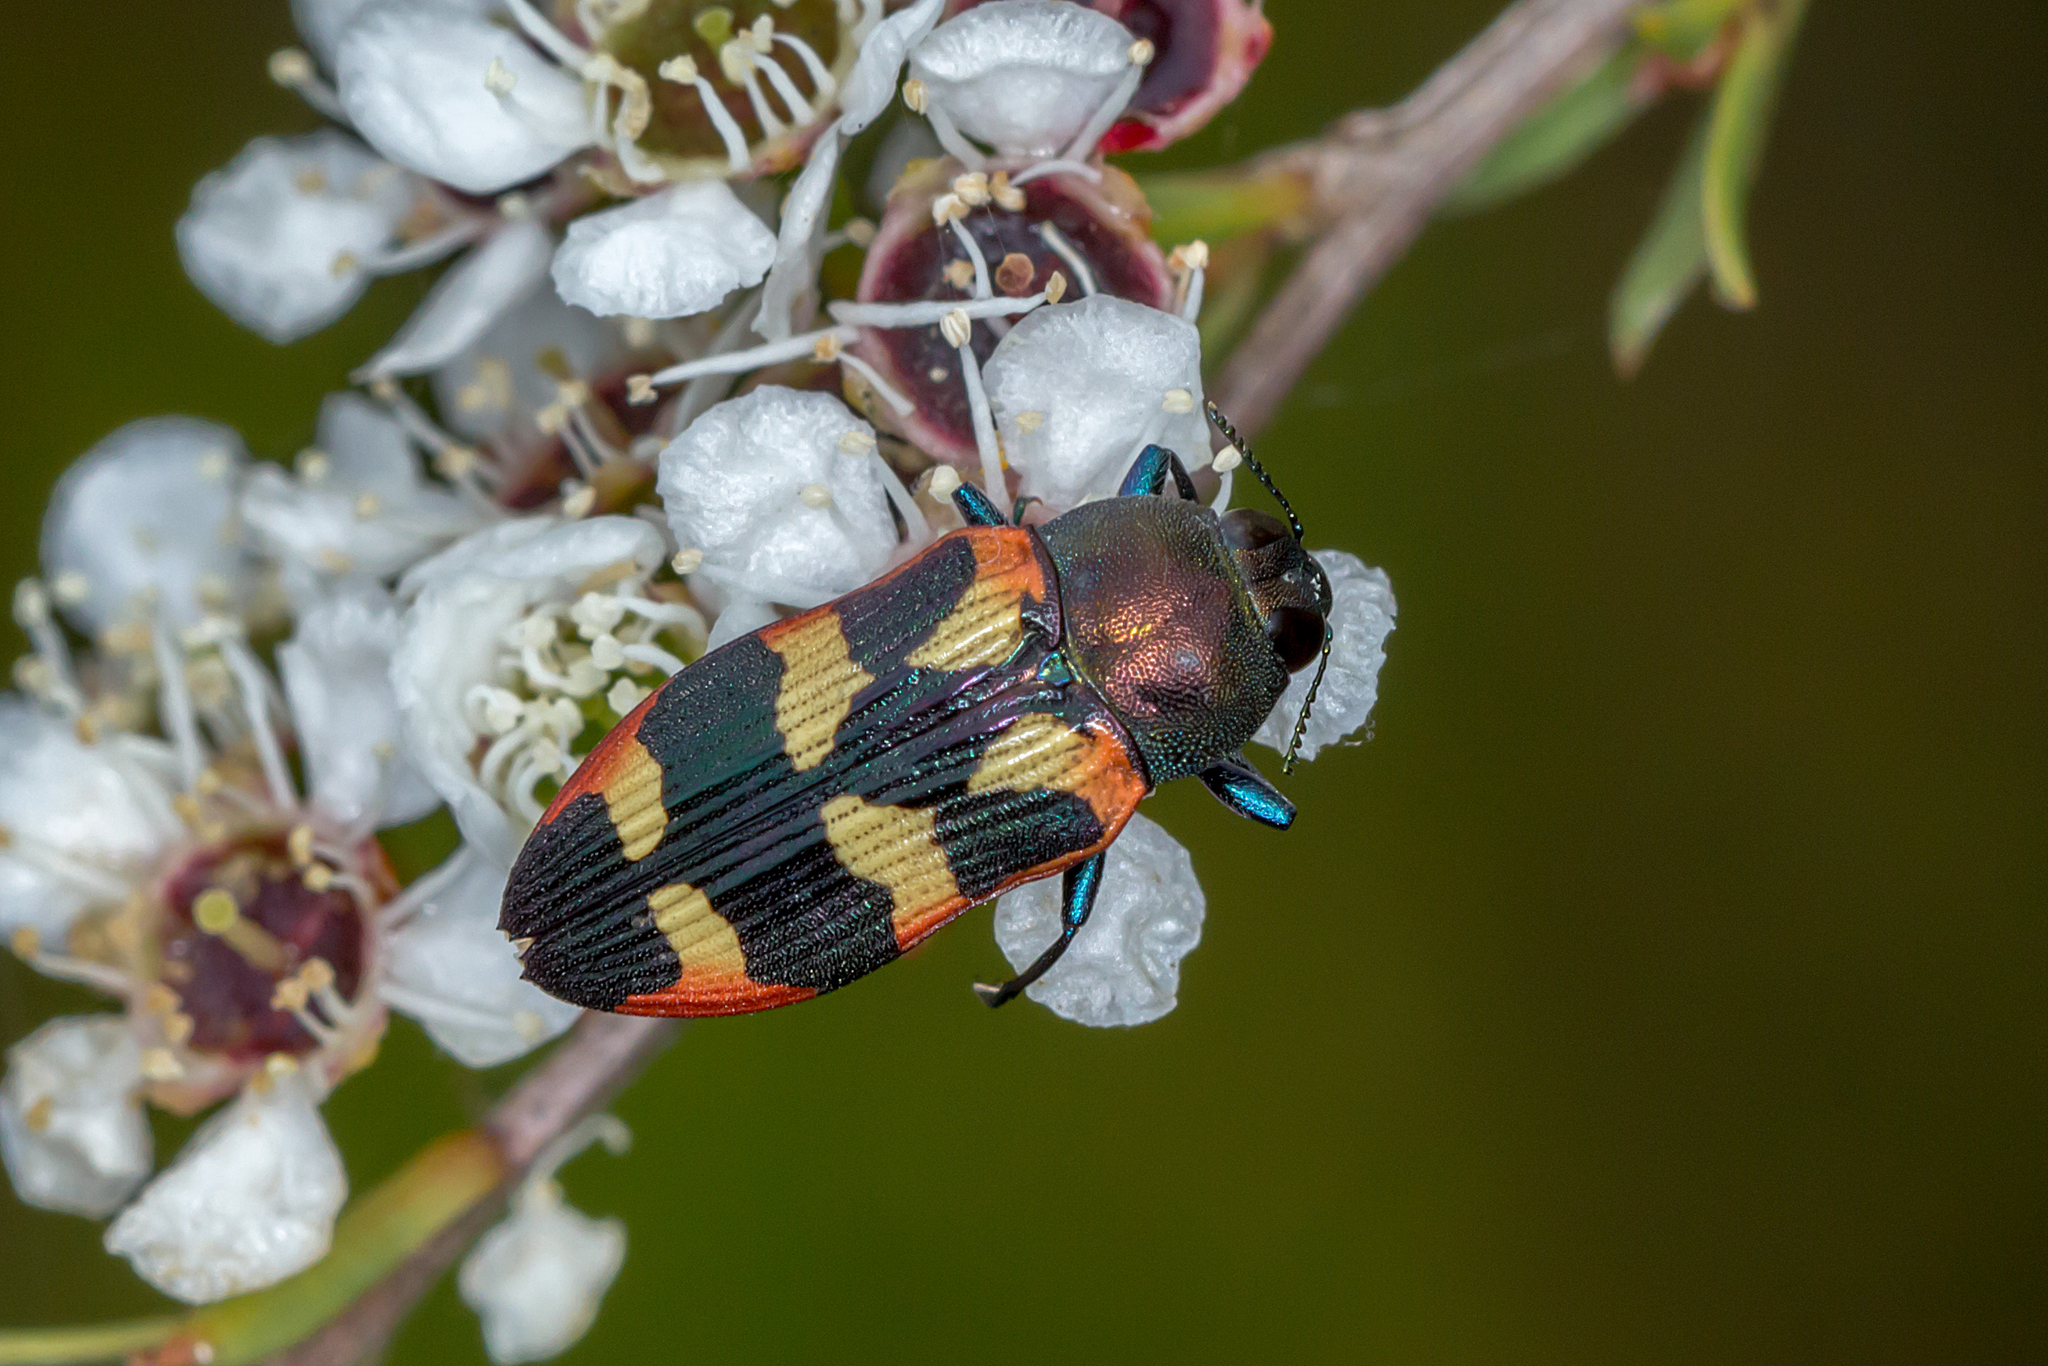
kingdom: Animalia
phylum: Arthropoda
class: Insecta
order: Coleoptera
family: Buprestidae
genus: Castiarina
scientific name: Castiarina sexplagiata
